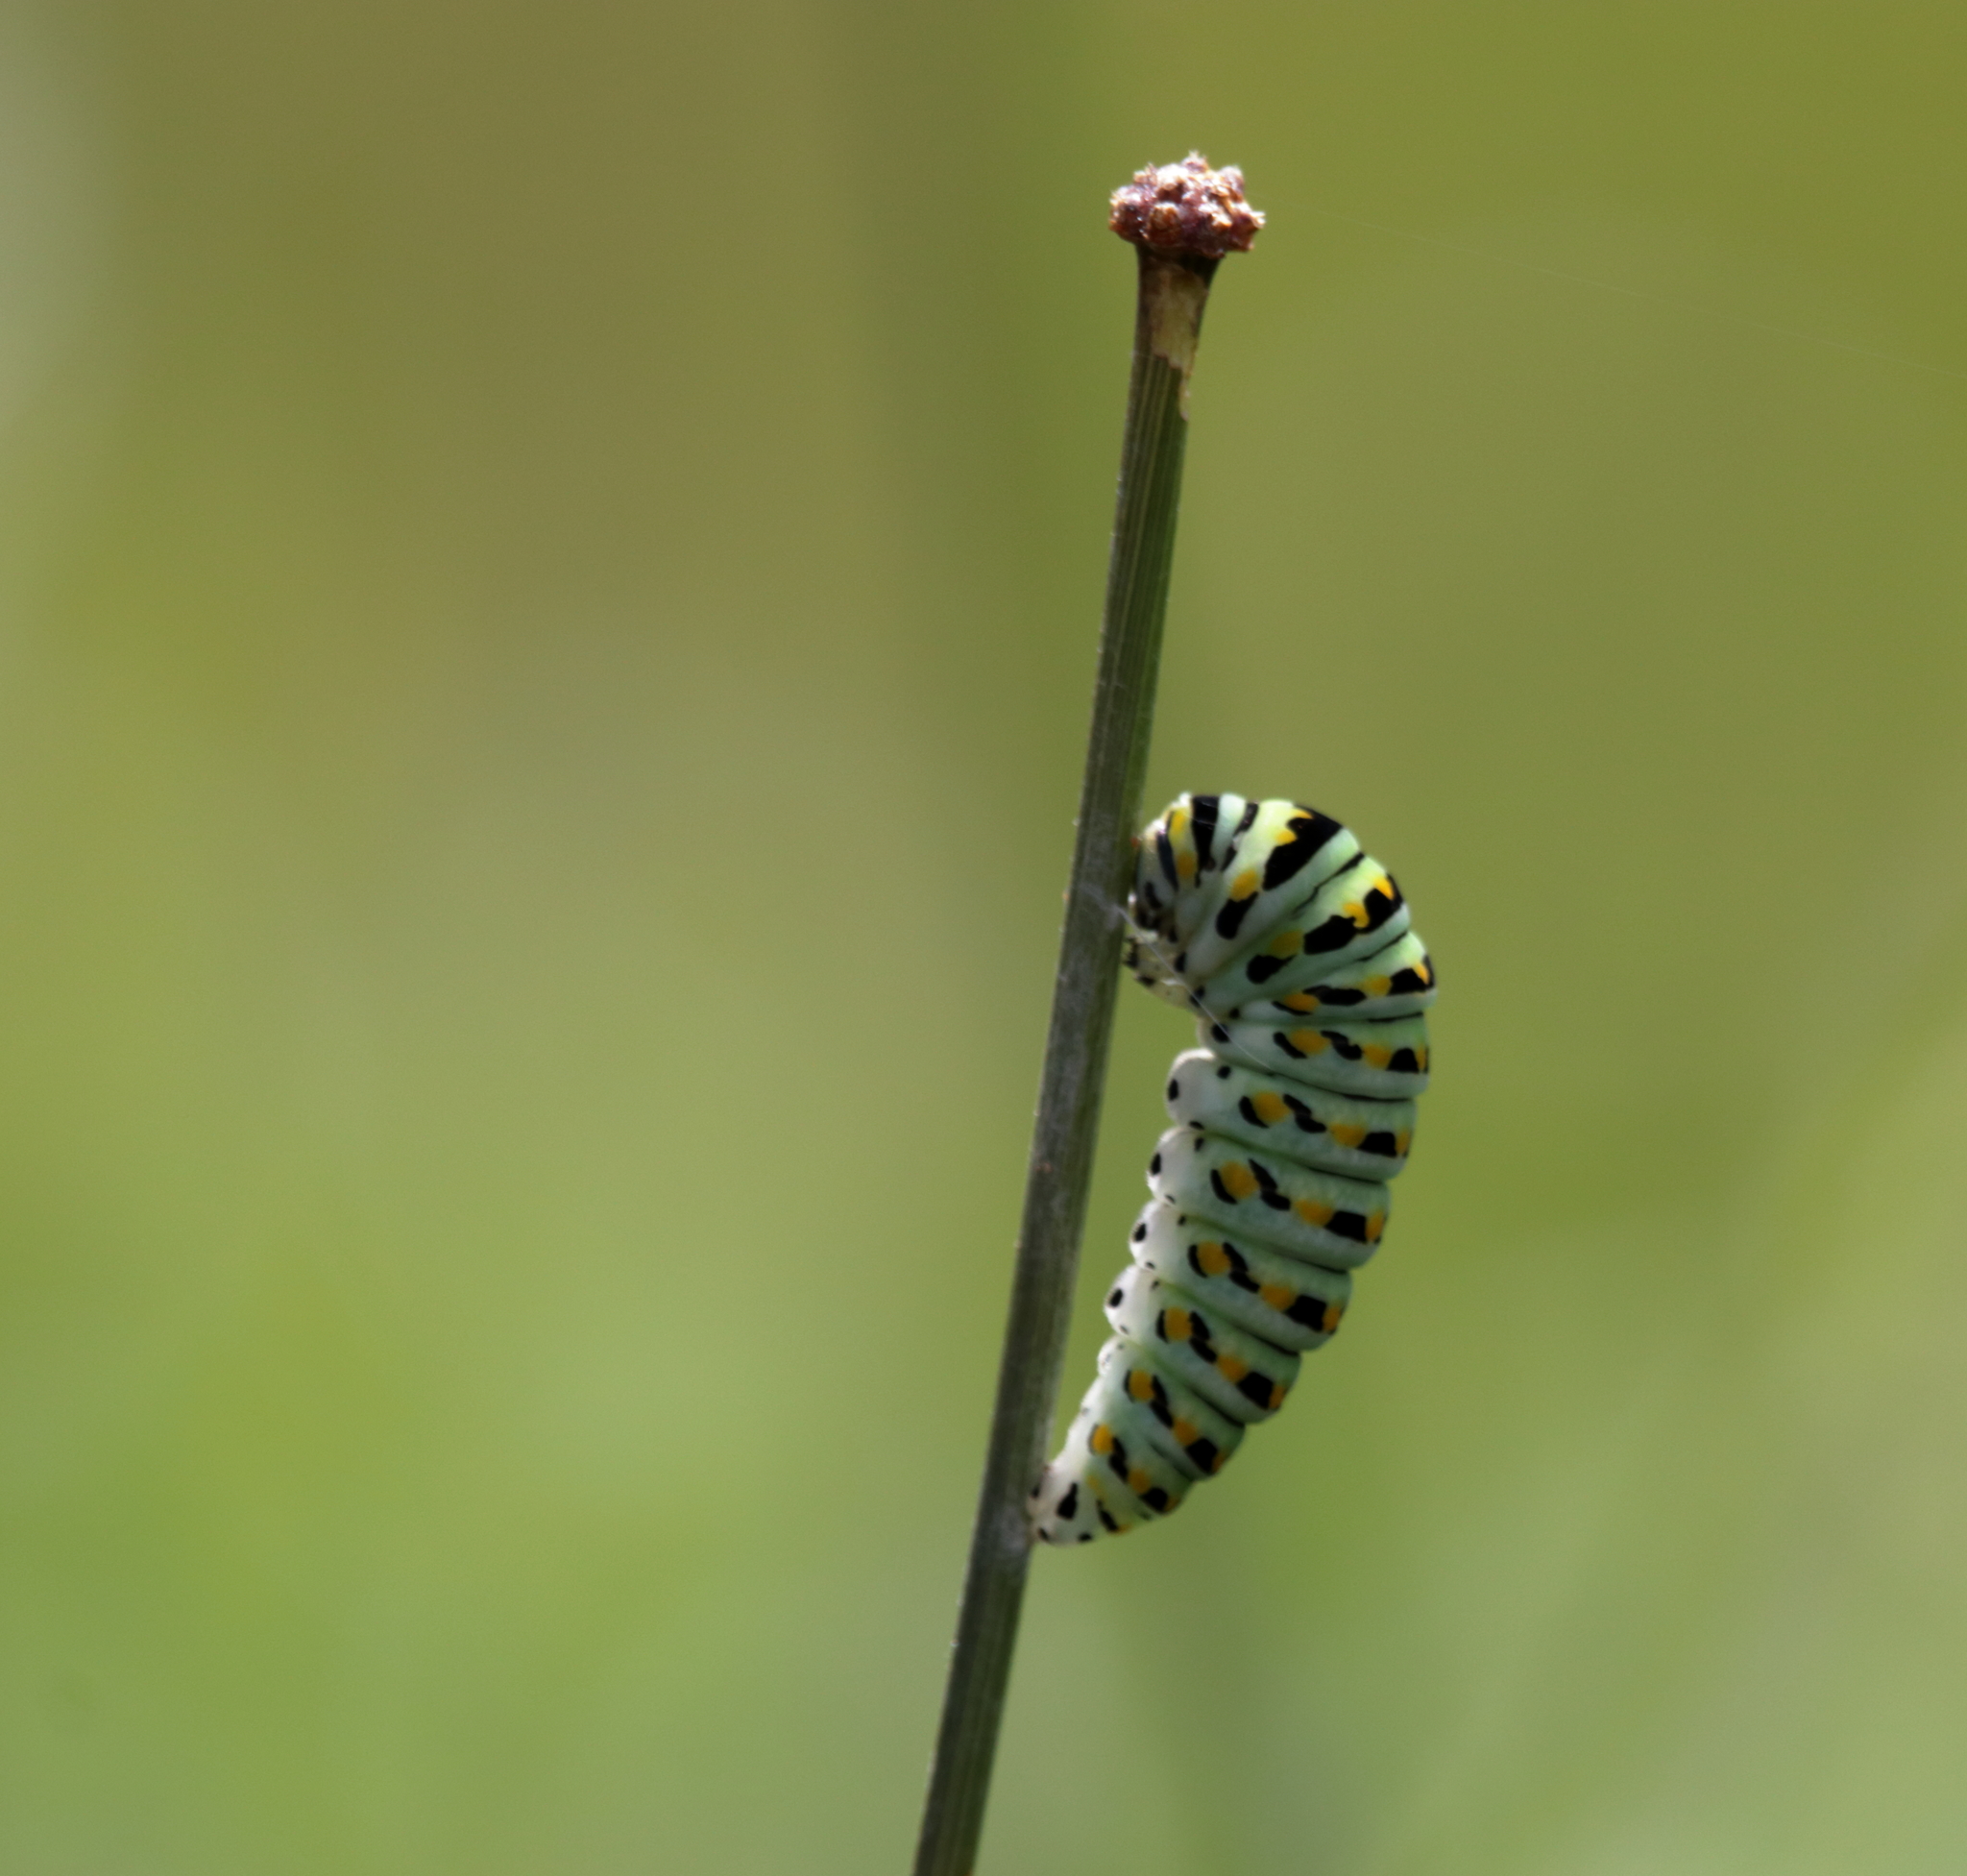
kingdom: Animalia
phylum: Arthropoda
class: Insecta
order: Lepidoptera
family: Papilionidae
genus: Papilio
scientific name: Papilio polyxenes
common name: Black swallowtail
